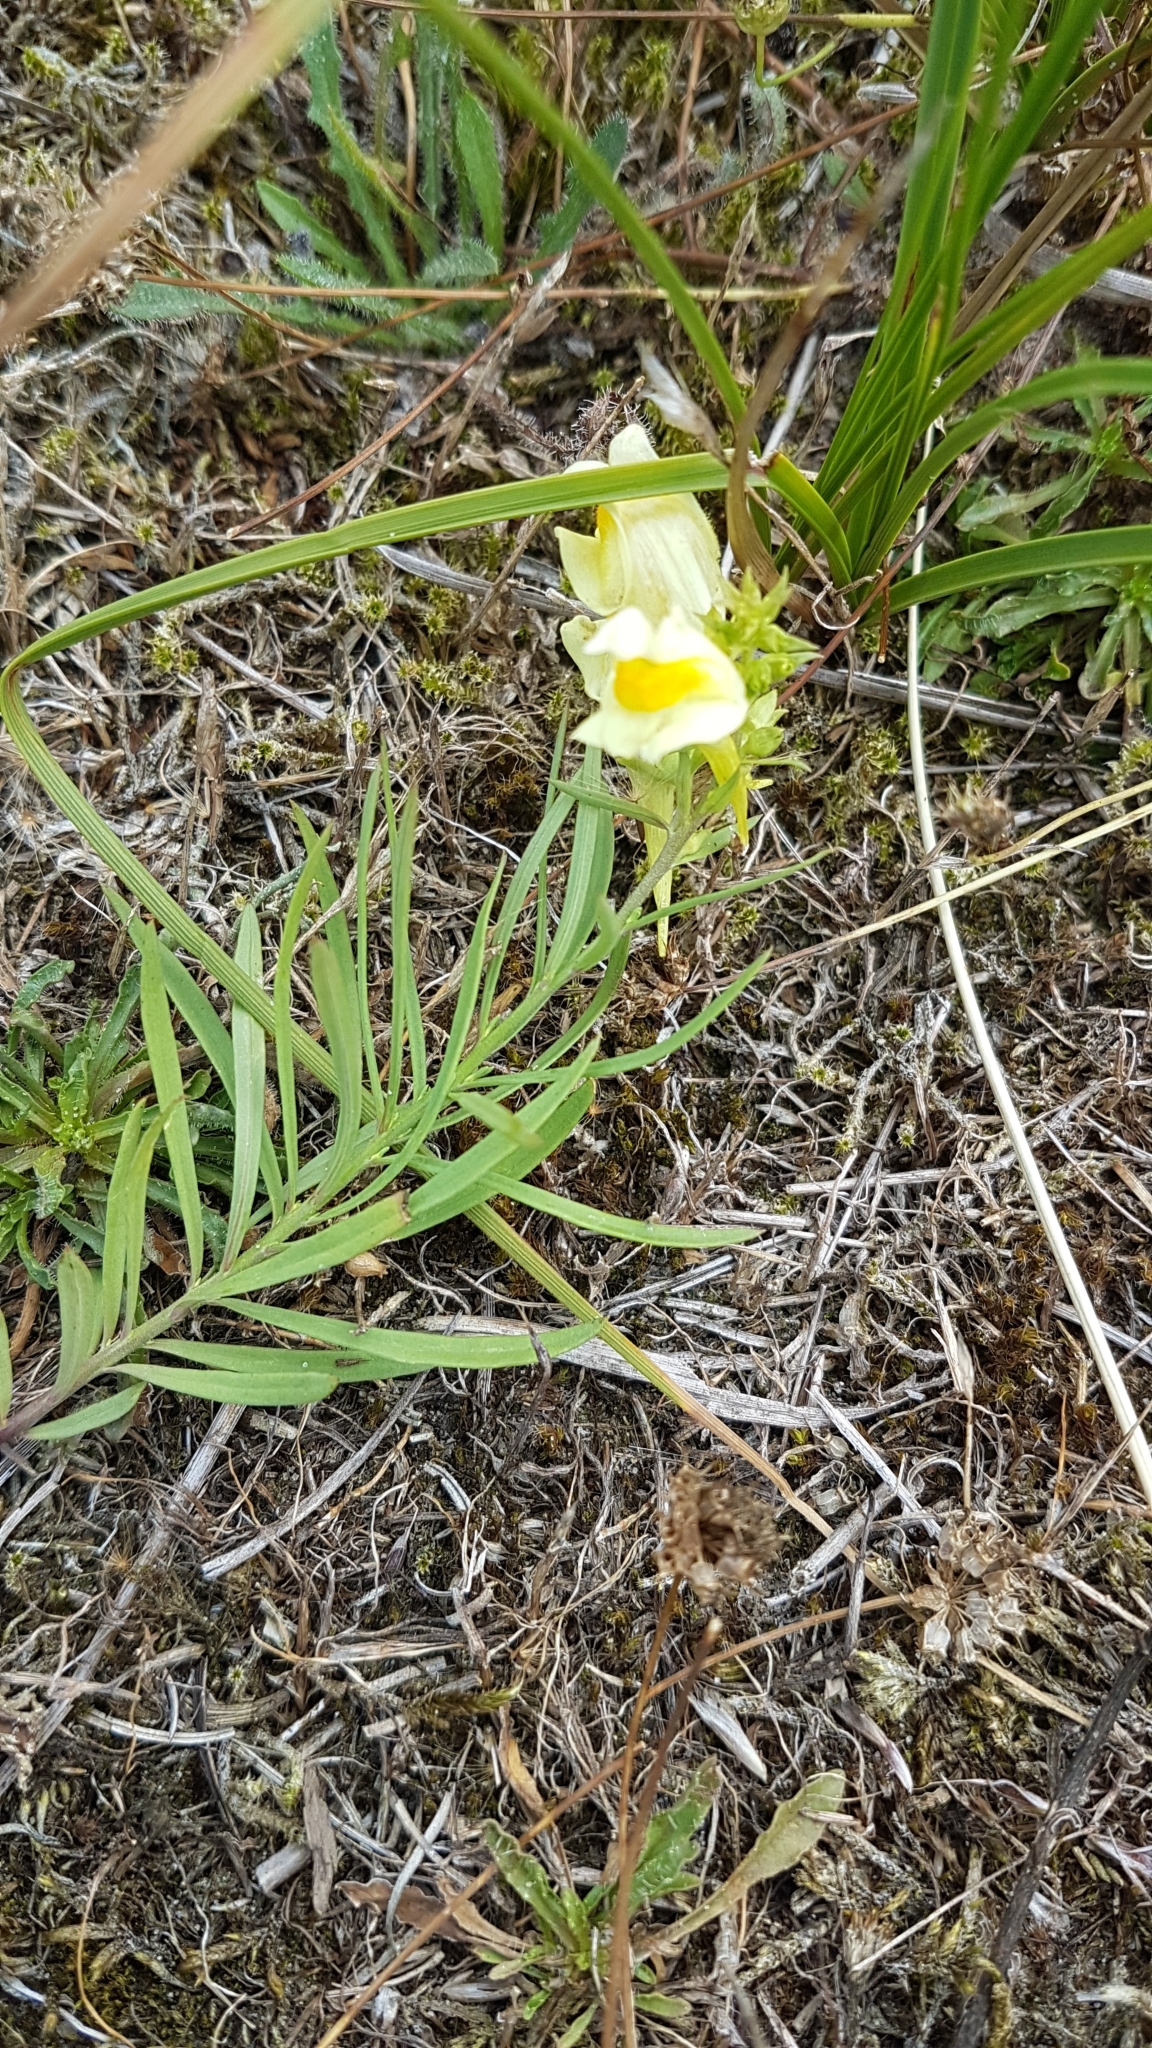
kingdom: Plantae
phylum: Tracheophyta
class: Magnoliopsida
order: Lamiales
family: Plantaginaceae
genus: Linaria
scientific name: Linaria vulgaris
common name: Butter and eggs
